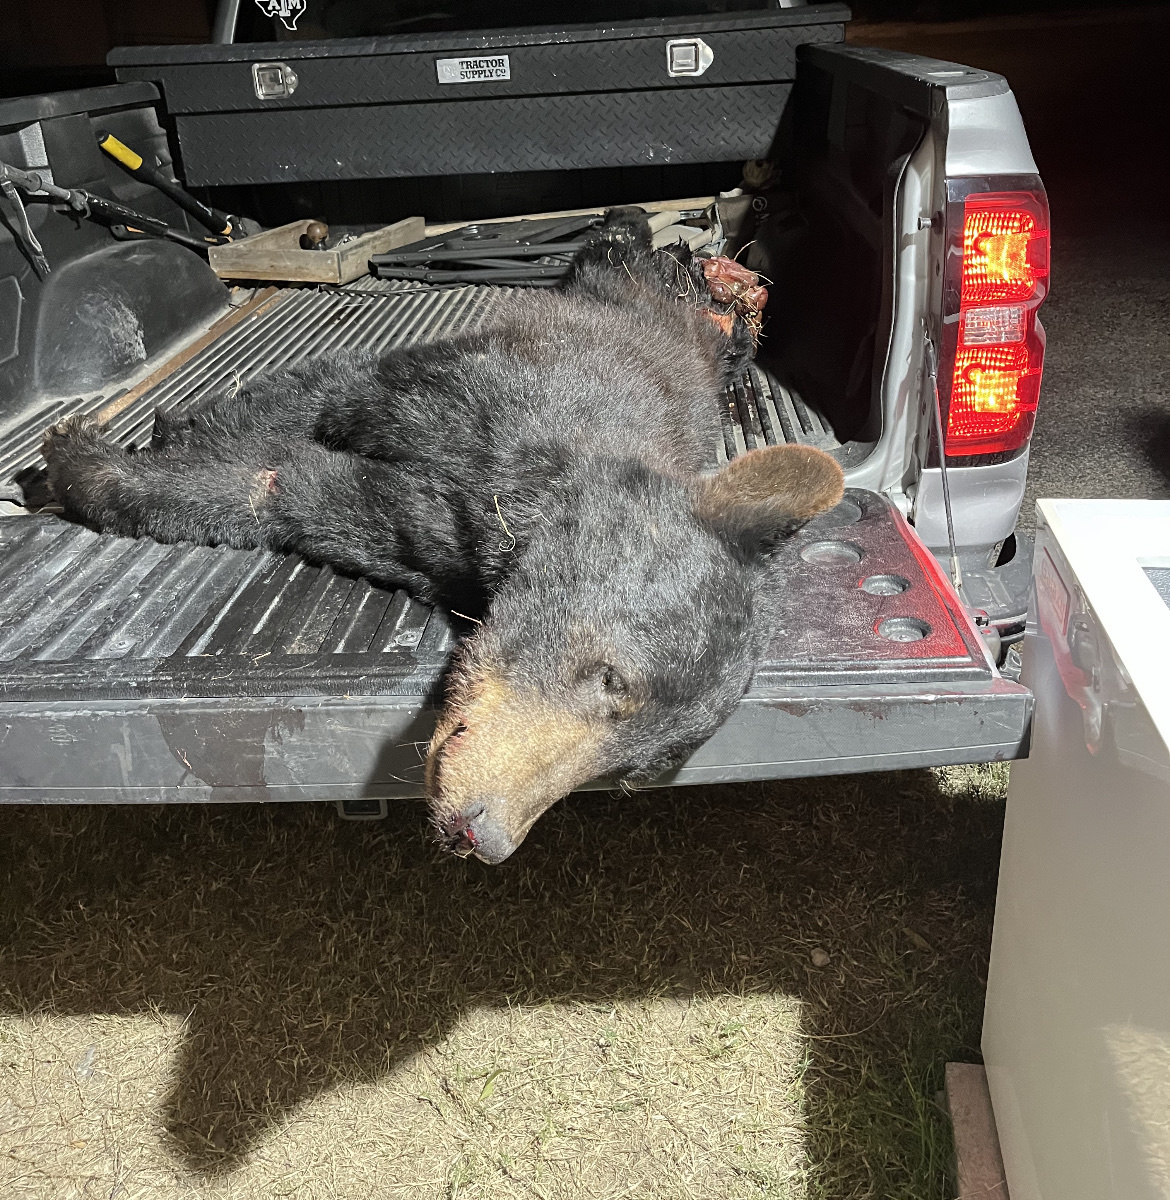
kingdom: Animalia
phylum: Chordata
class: Mammalia
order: Carnivora
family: Ursidae
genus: Ursus
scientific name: Ursus americanus
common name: American black bear
